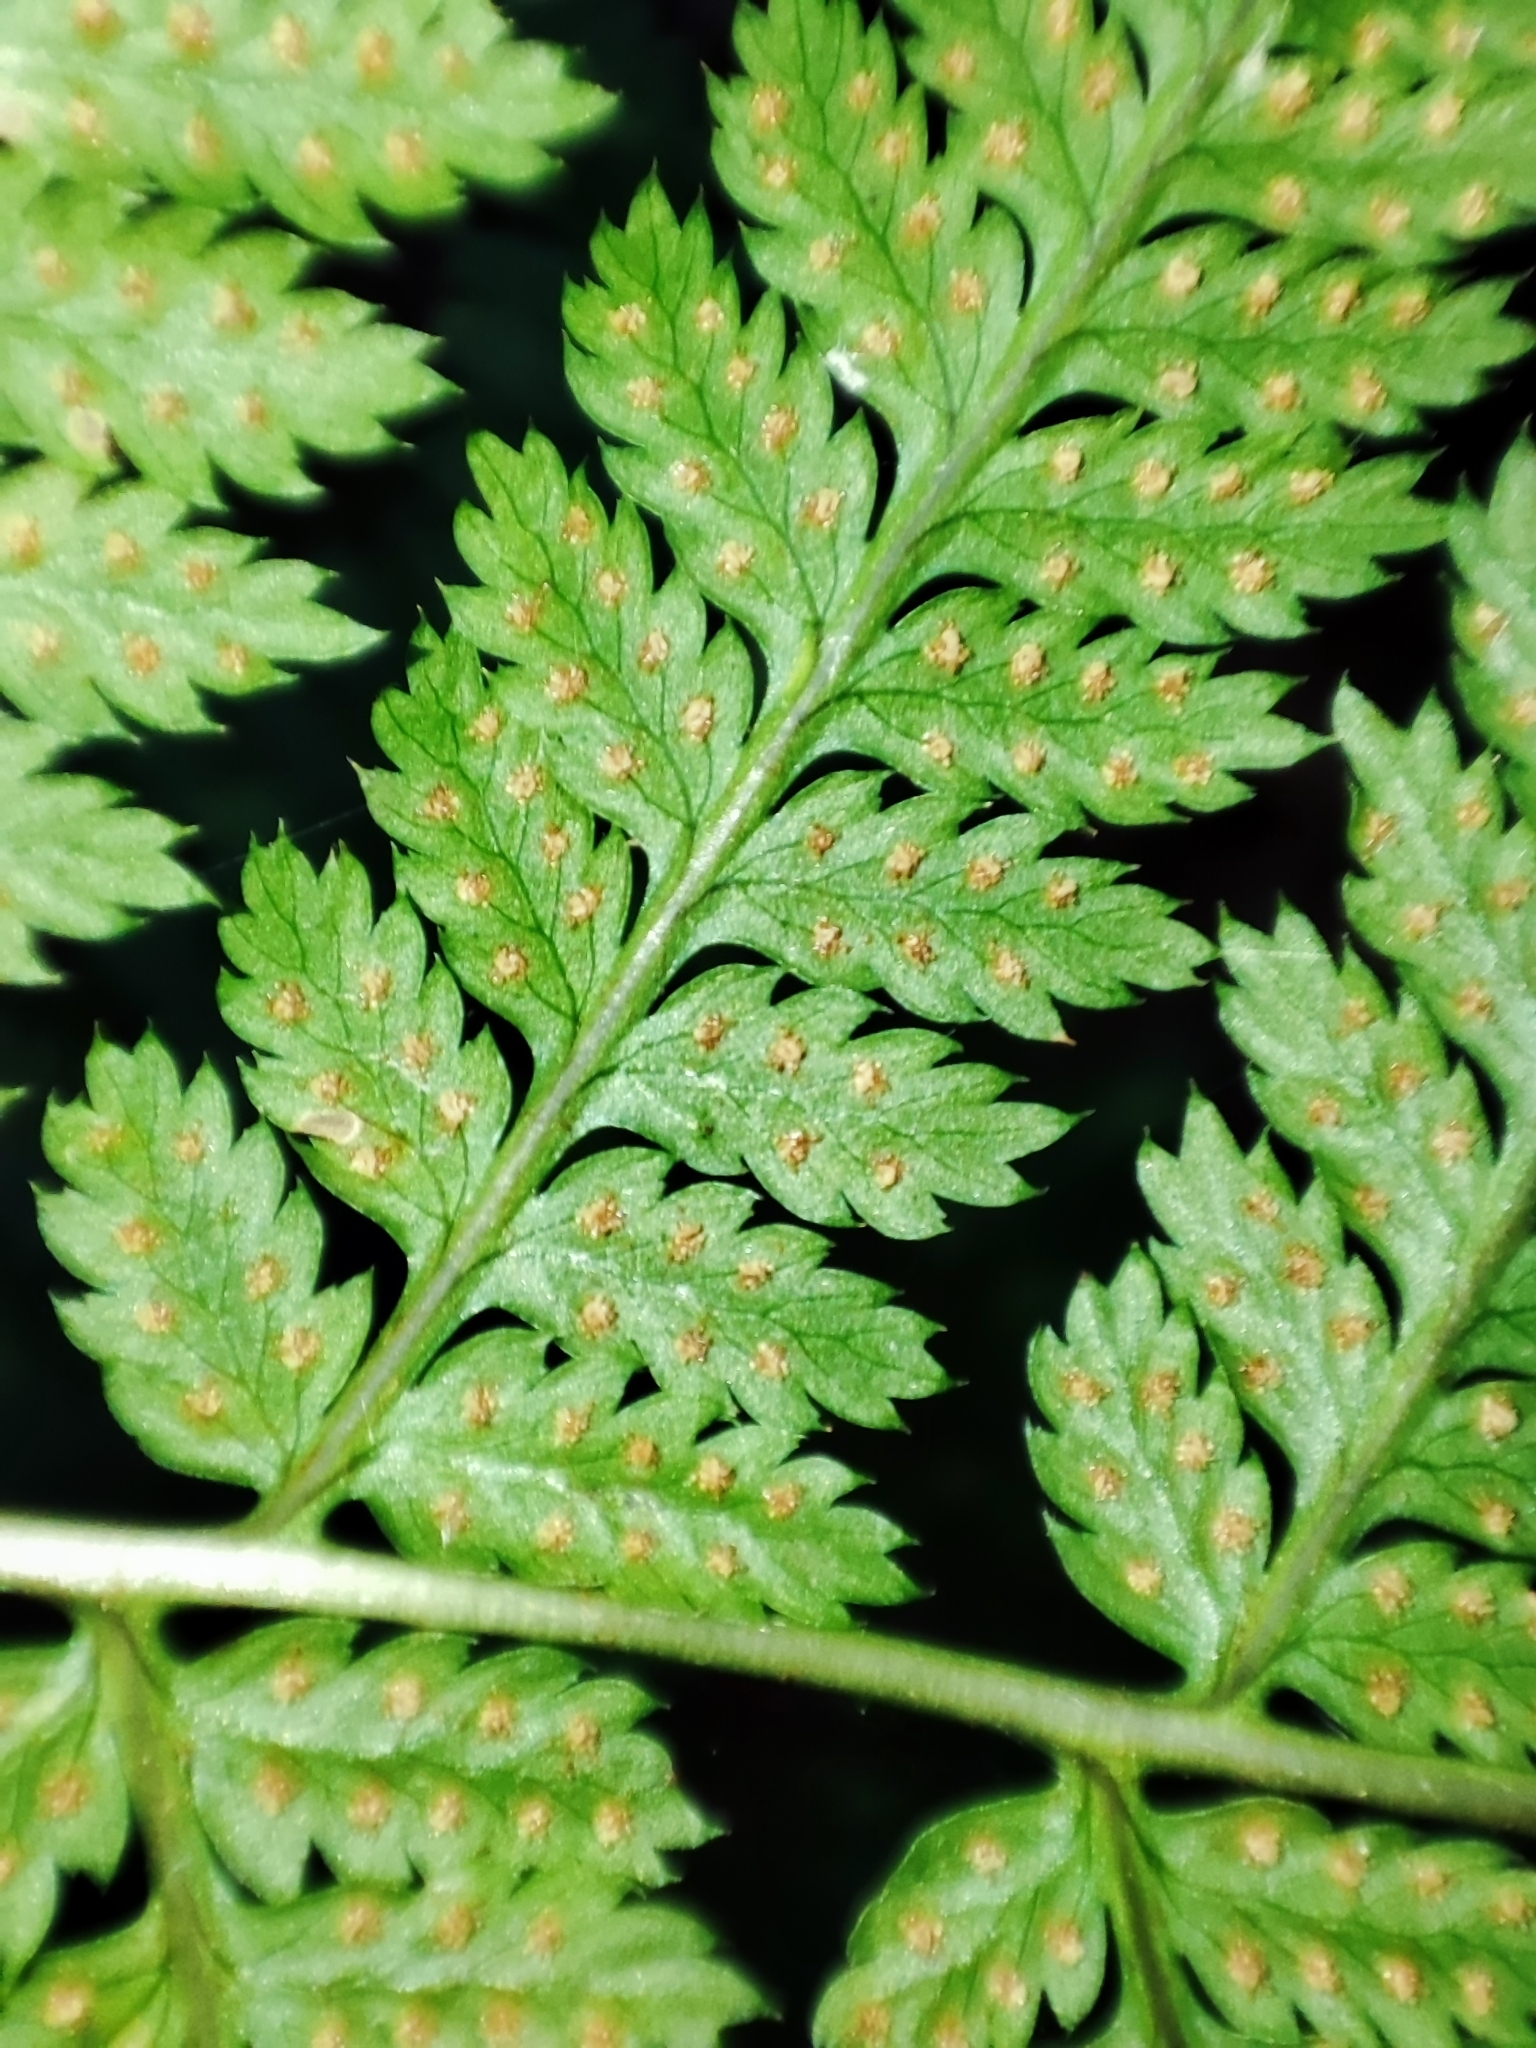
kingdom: Plantae
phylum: Tracheophyta
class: Polypodiopsida
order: Polypodiales
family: Dryopteridaceae
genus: Dryopteris
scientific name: Dryopteris carthusiana
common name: Narrow buckler-fern
